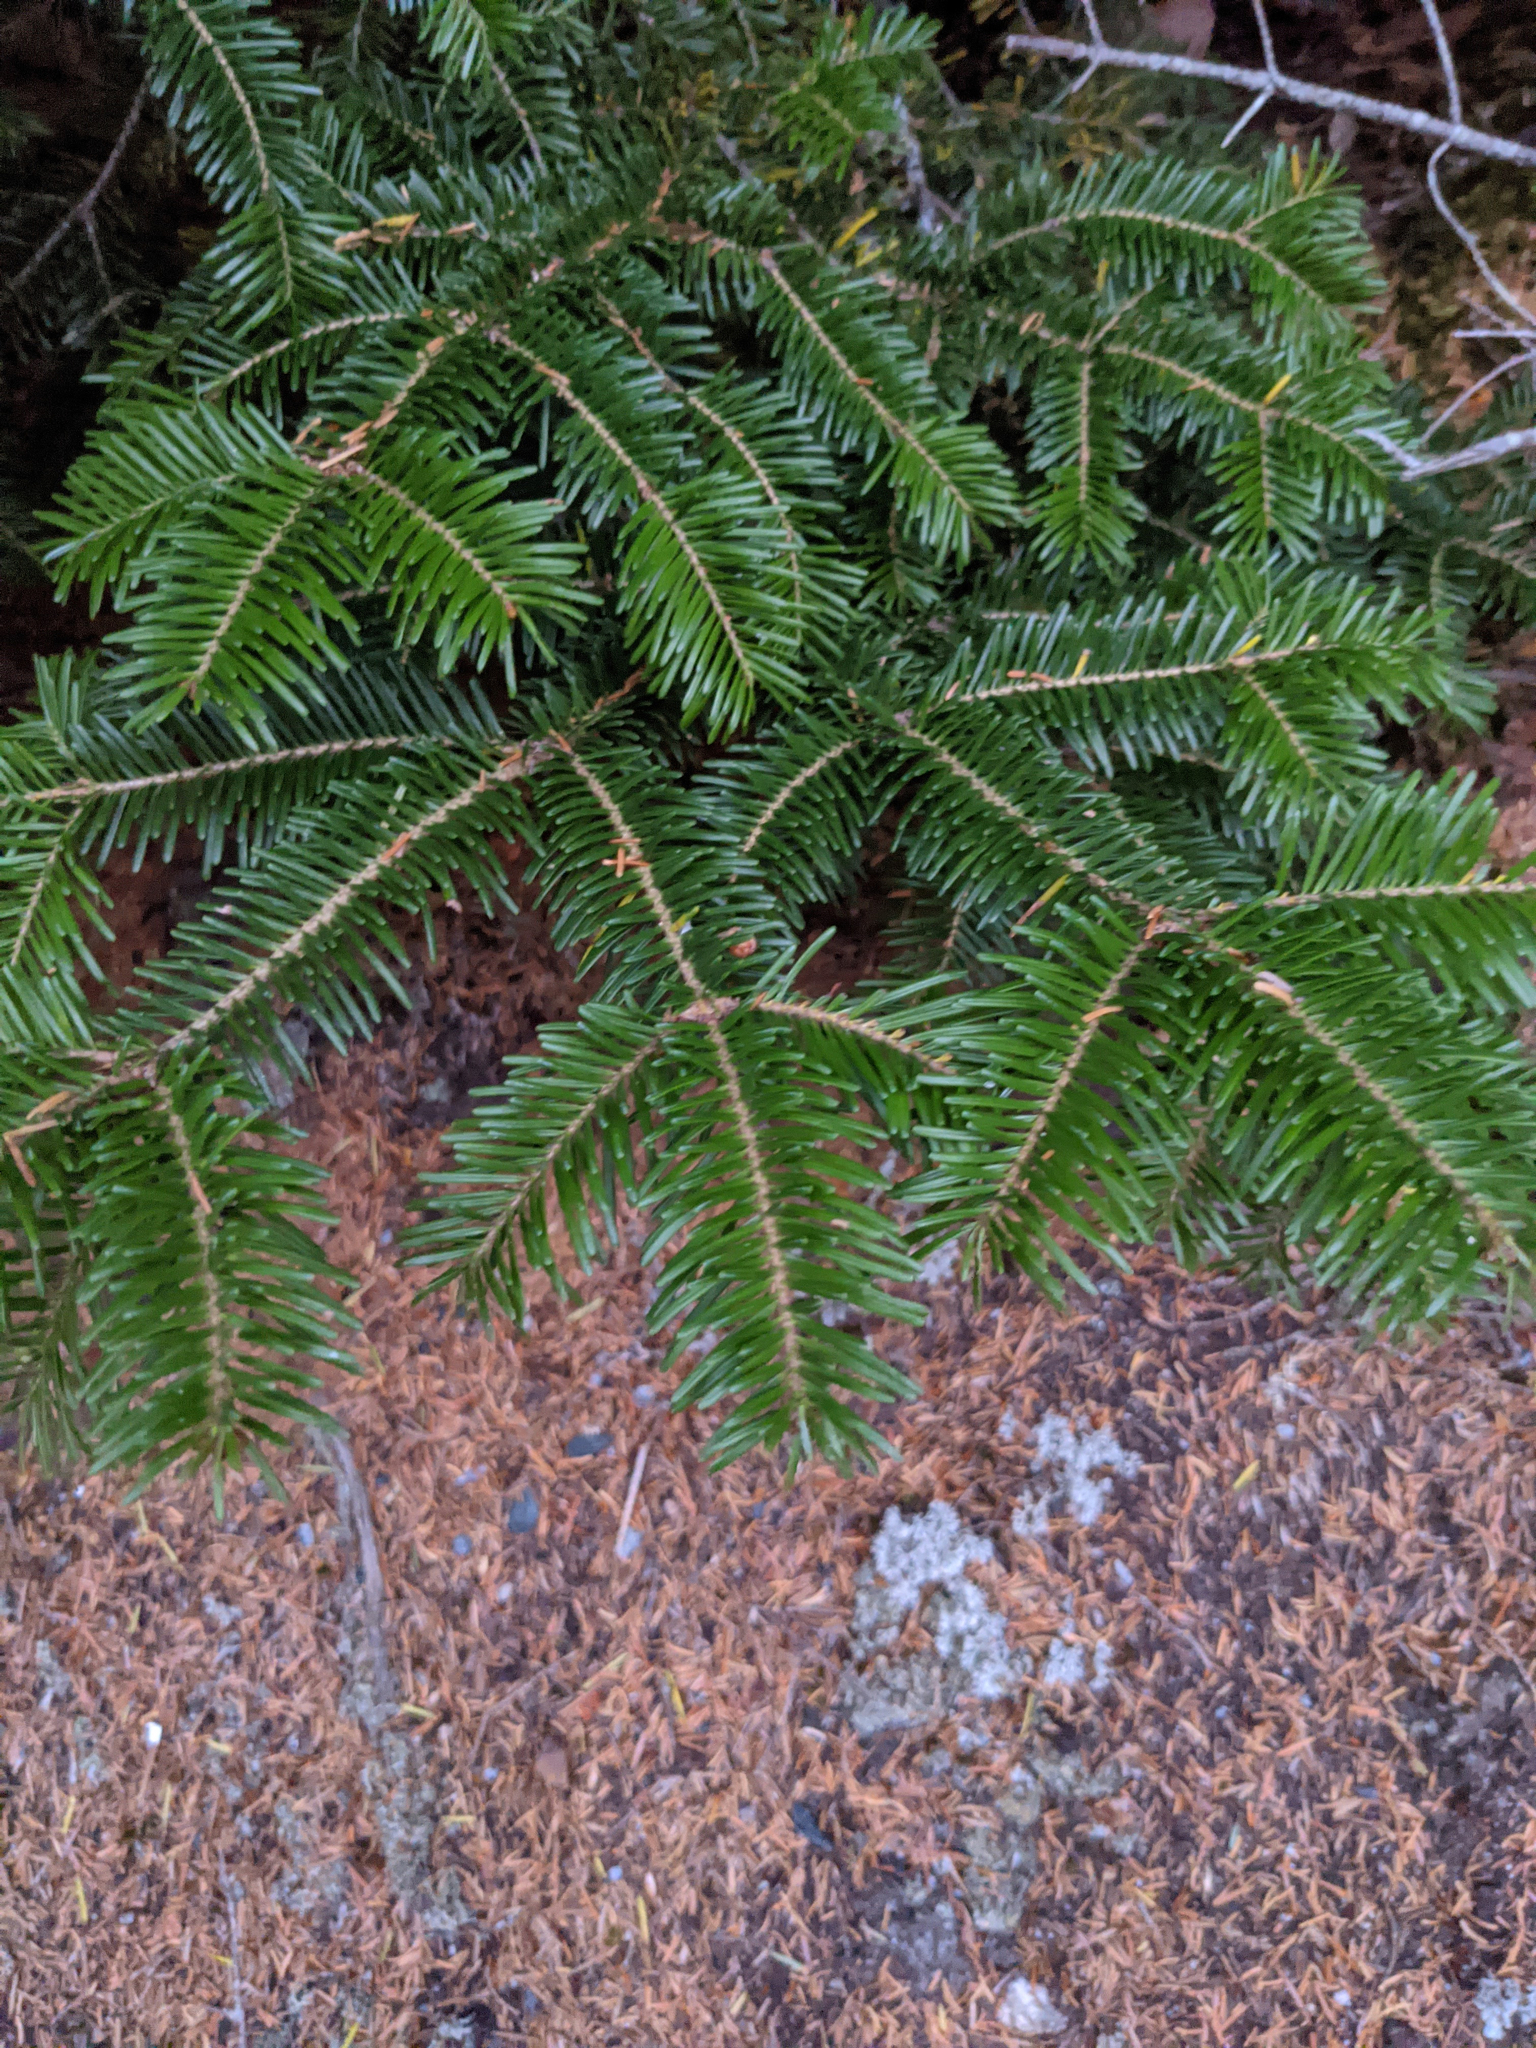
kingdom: Plantae
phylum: Tracheophyta
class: Pinopsida
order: Pinales
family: Pinaceae
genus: Abies
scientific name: Abies balsamea
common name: Balsam fir
